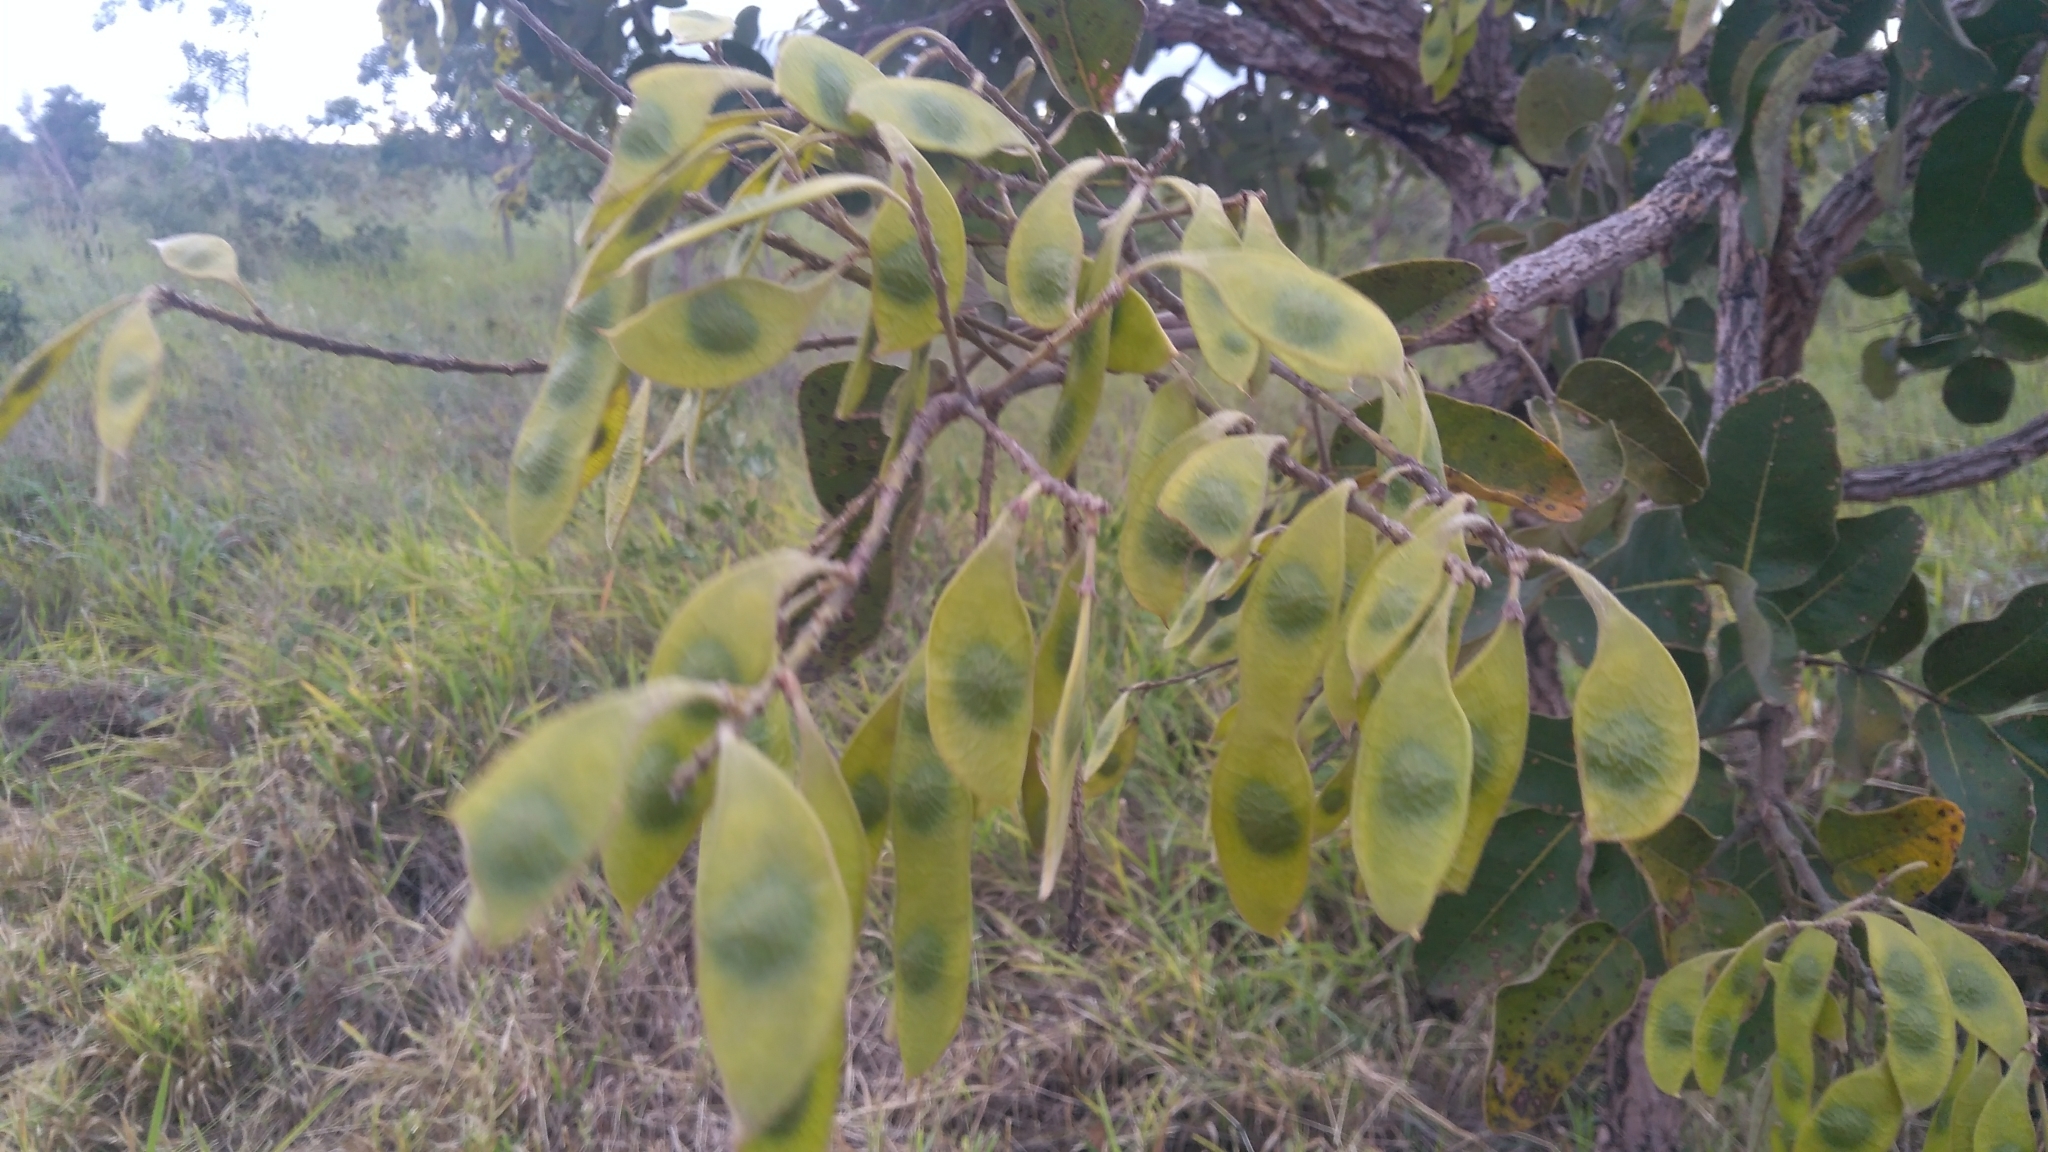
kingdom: Plantae
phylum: Tracheophyta
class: Magnoliopsida
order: Fabales
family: Fabaceae
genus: Leptolobium
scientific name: Leptolobium dasycarpum
